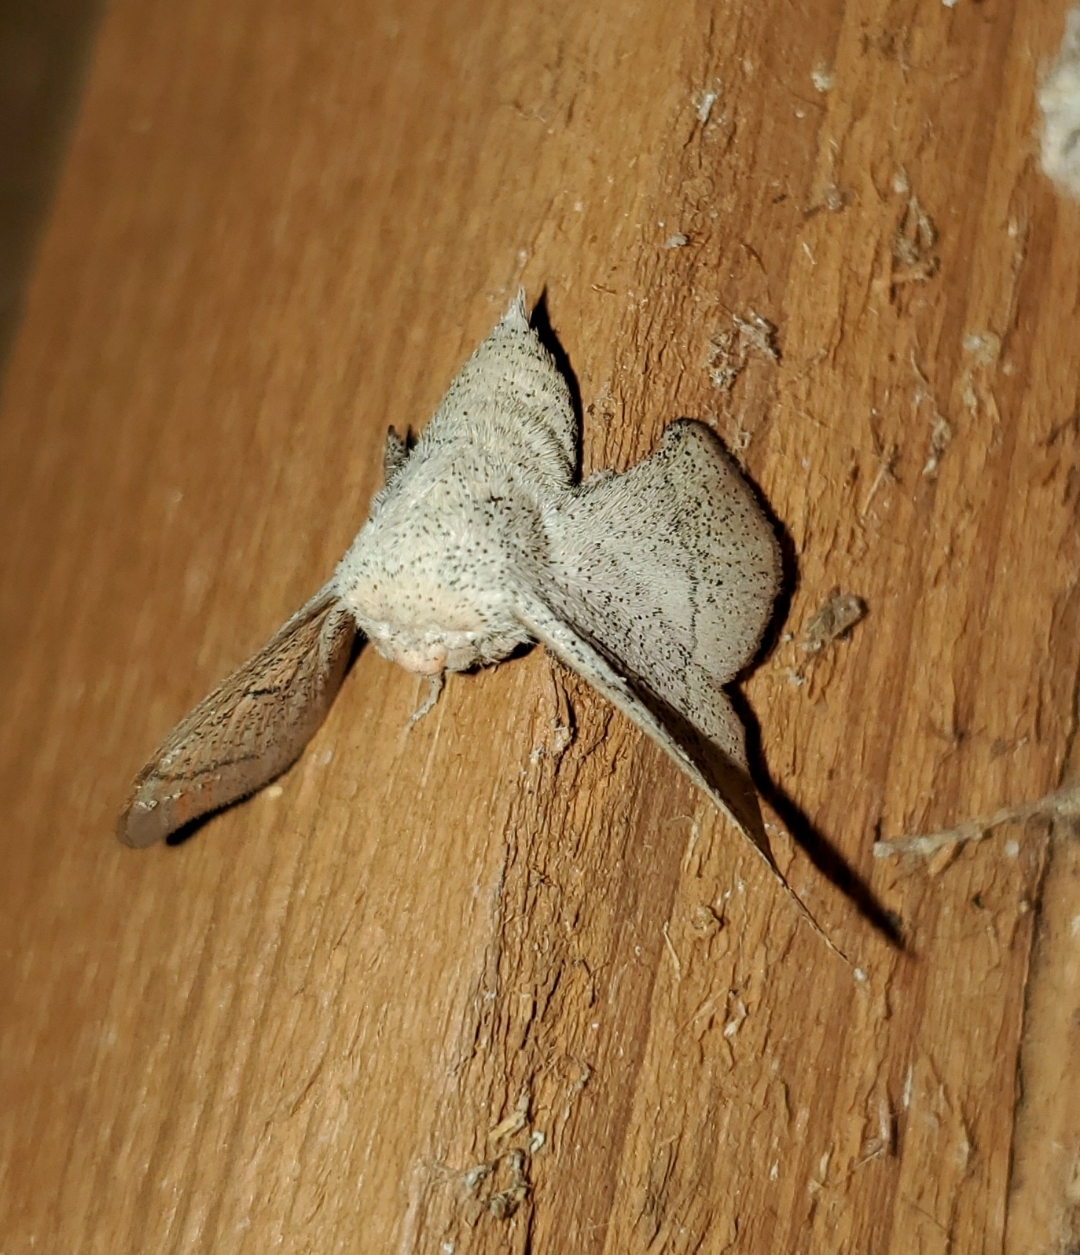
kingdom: Animalia
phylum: Arthropoda
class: Insecta
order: Lepidoptera
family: Mimallonidae
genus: Cicinnus
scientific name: Cicinnus melsheimeri
